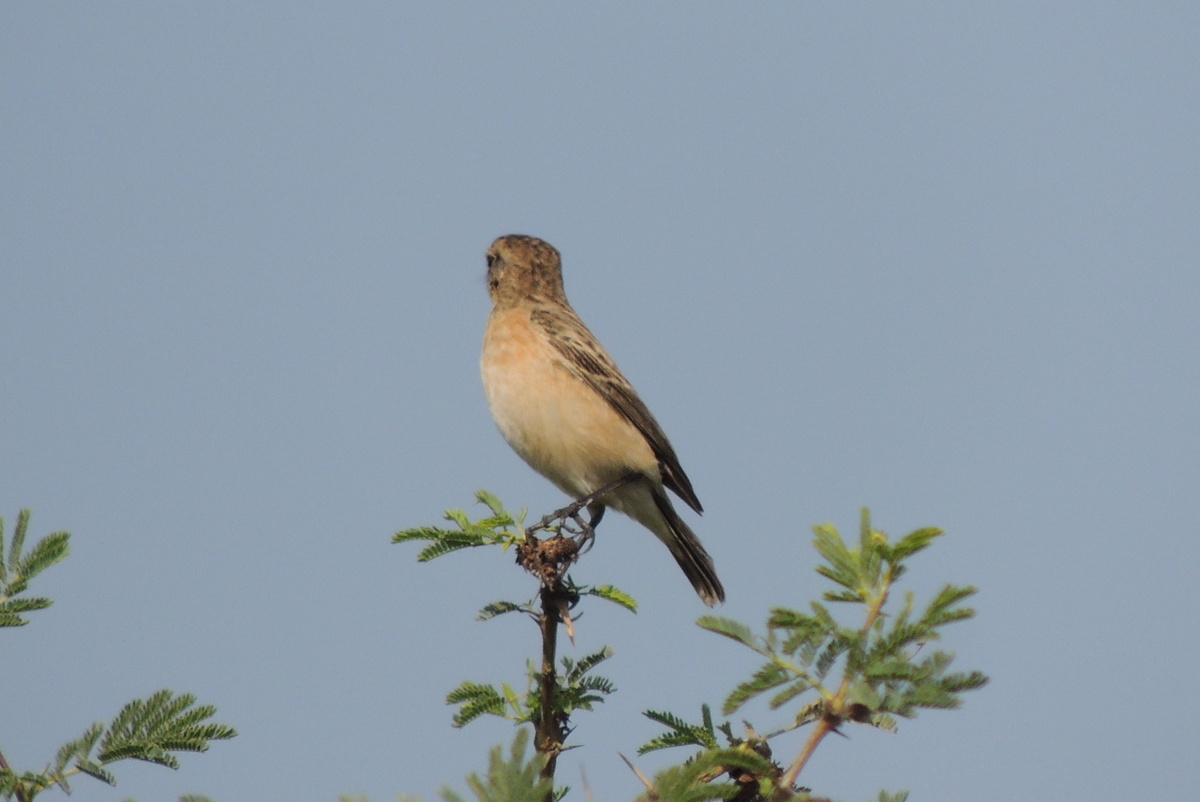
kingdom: Animalia
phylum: Chordata
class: Aves
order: Passeriformes
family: Muscicapidae
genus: Saxicola
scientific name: Saxicola maurus
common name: Siberian stonechat
